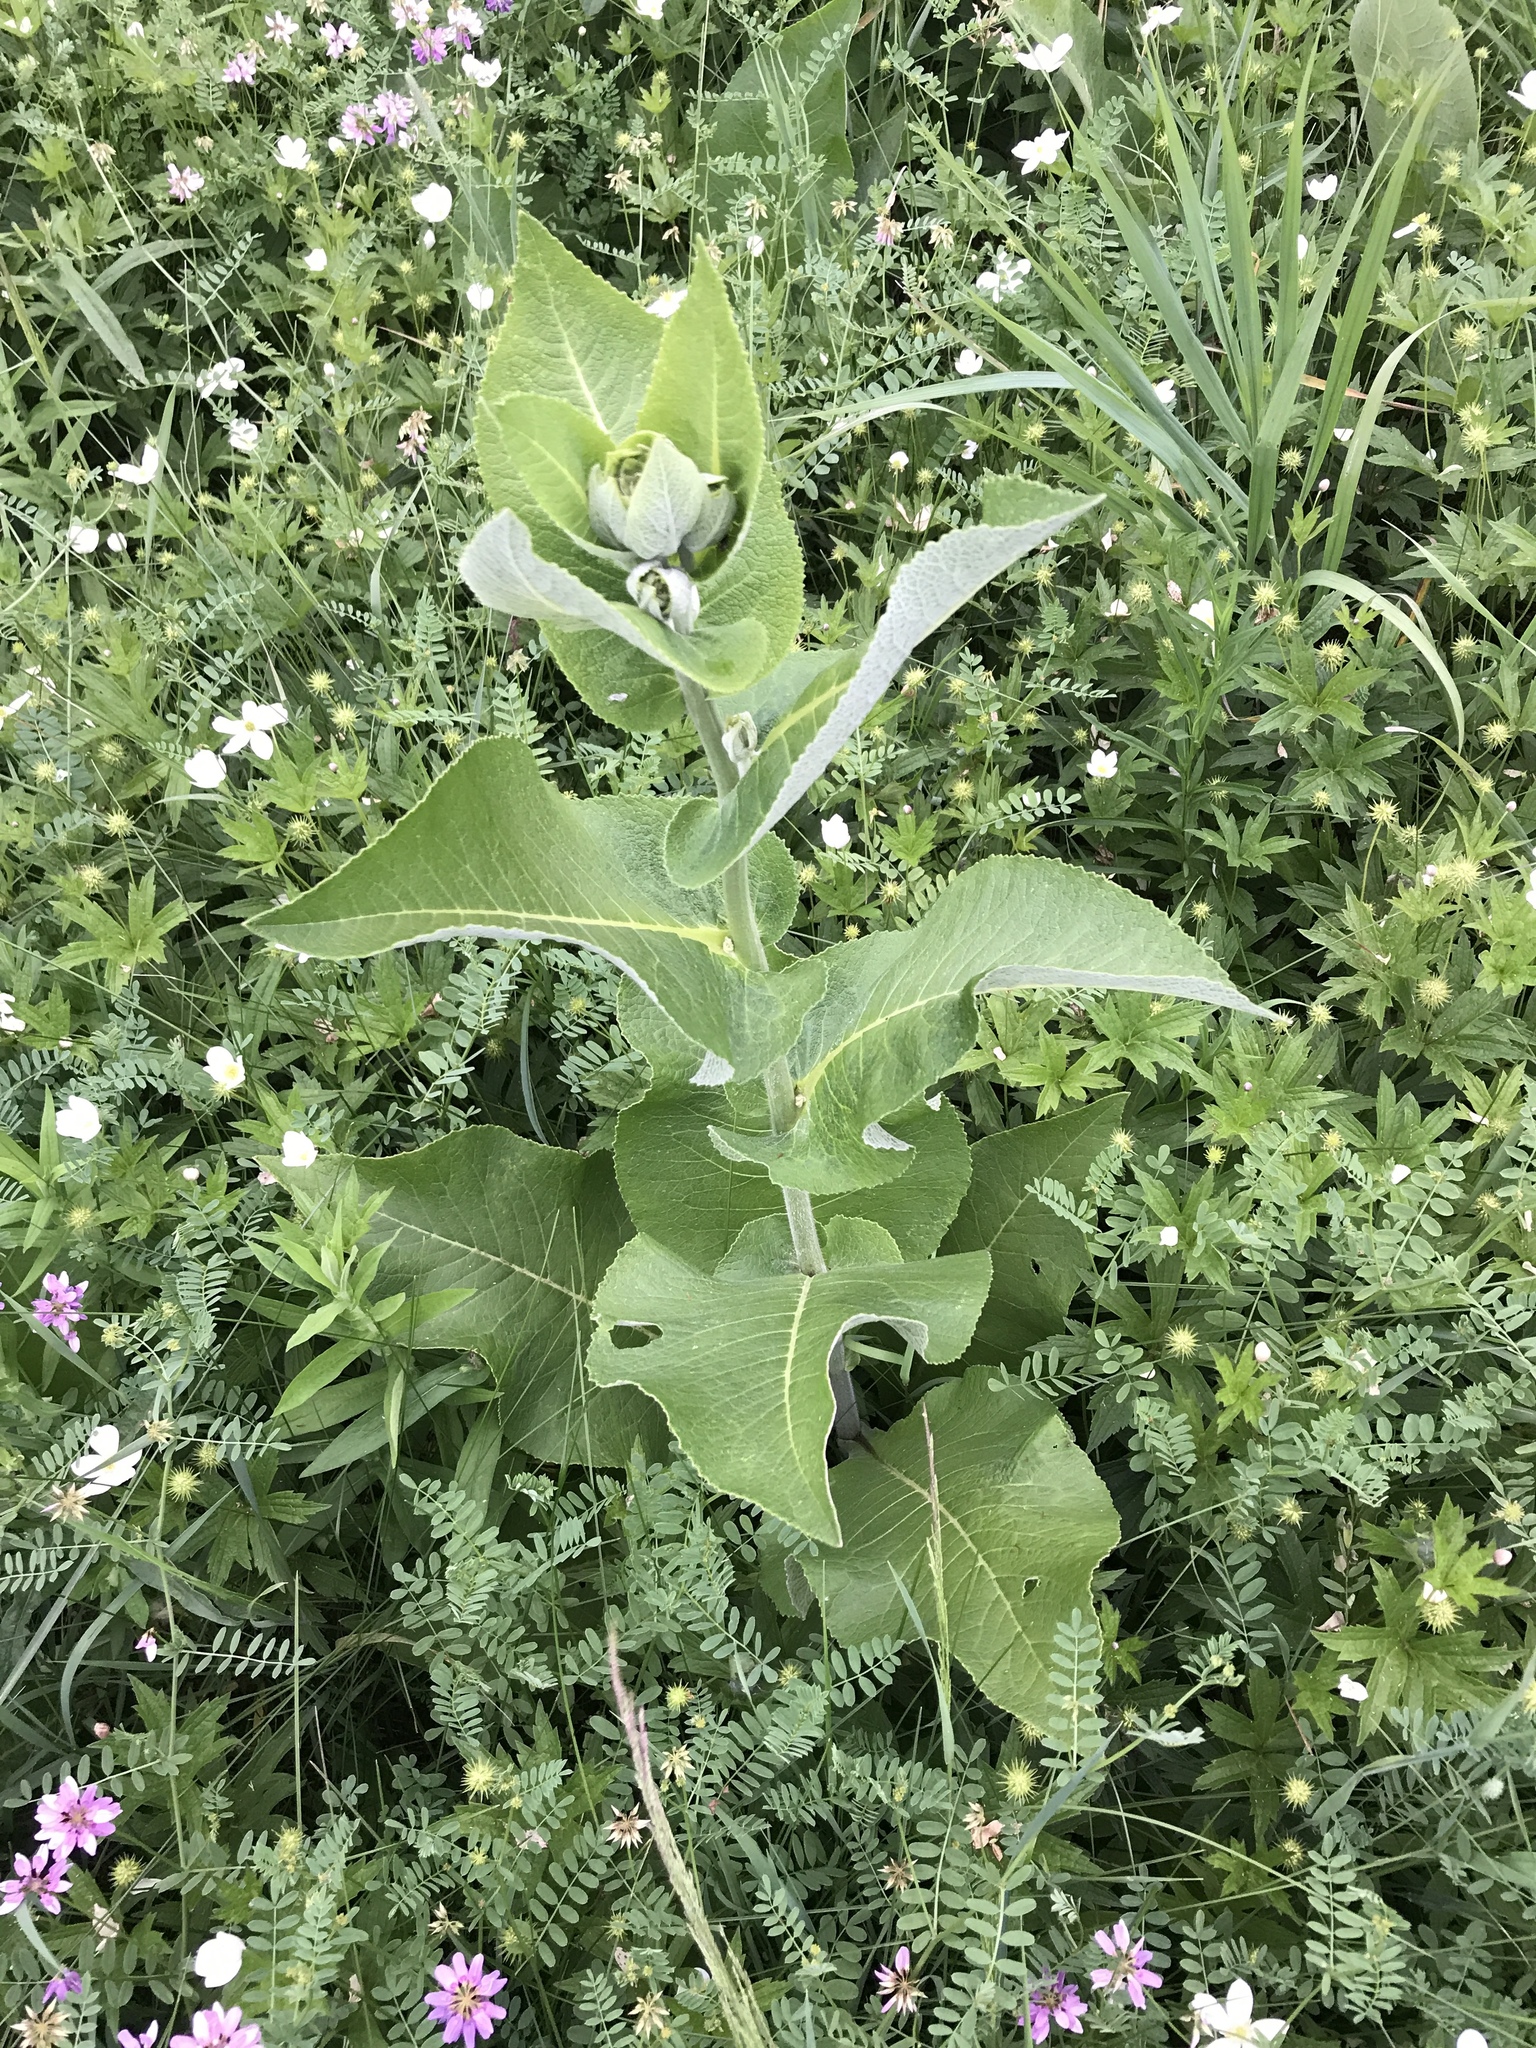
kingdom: Plantae
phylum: Tracheophyta
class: Magnoliopsida
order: Asterales
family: Asteraceae
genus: Inula
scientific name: Inula helenium
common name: Elecampane
